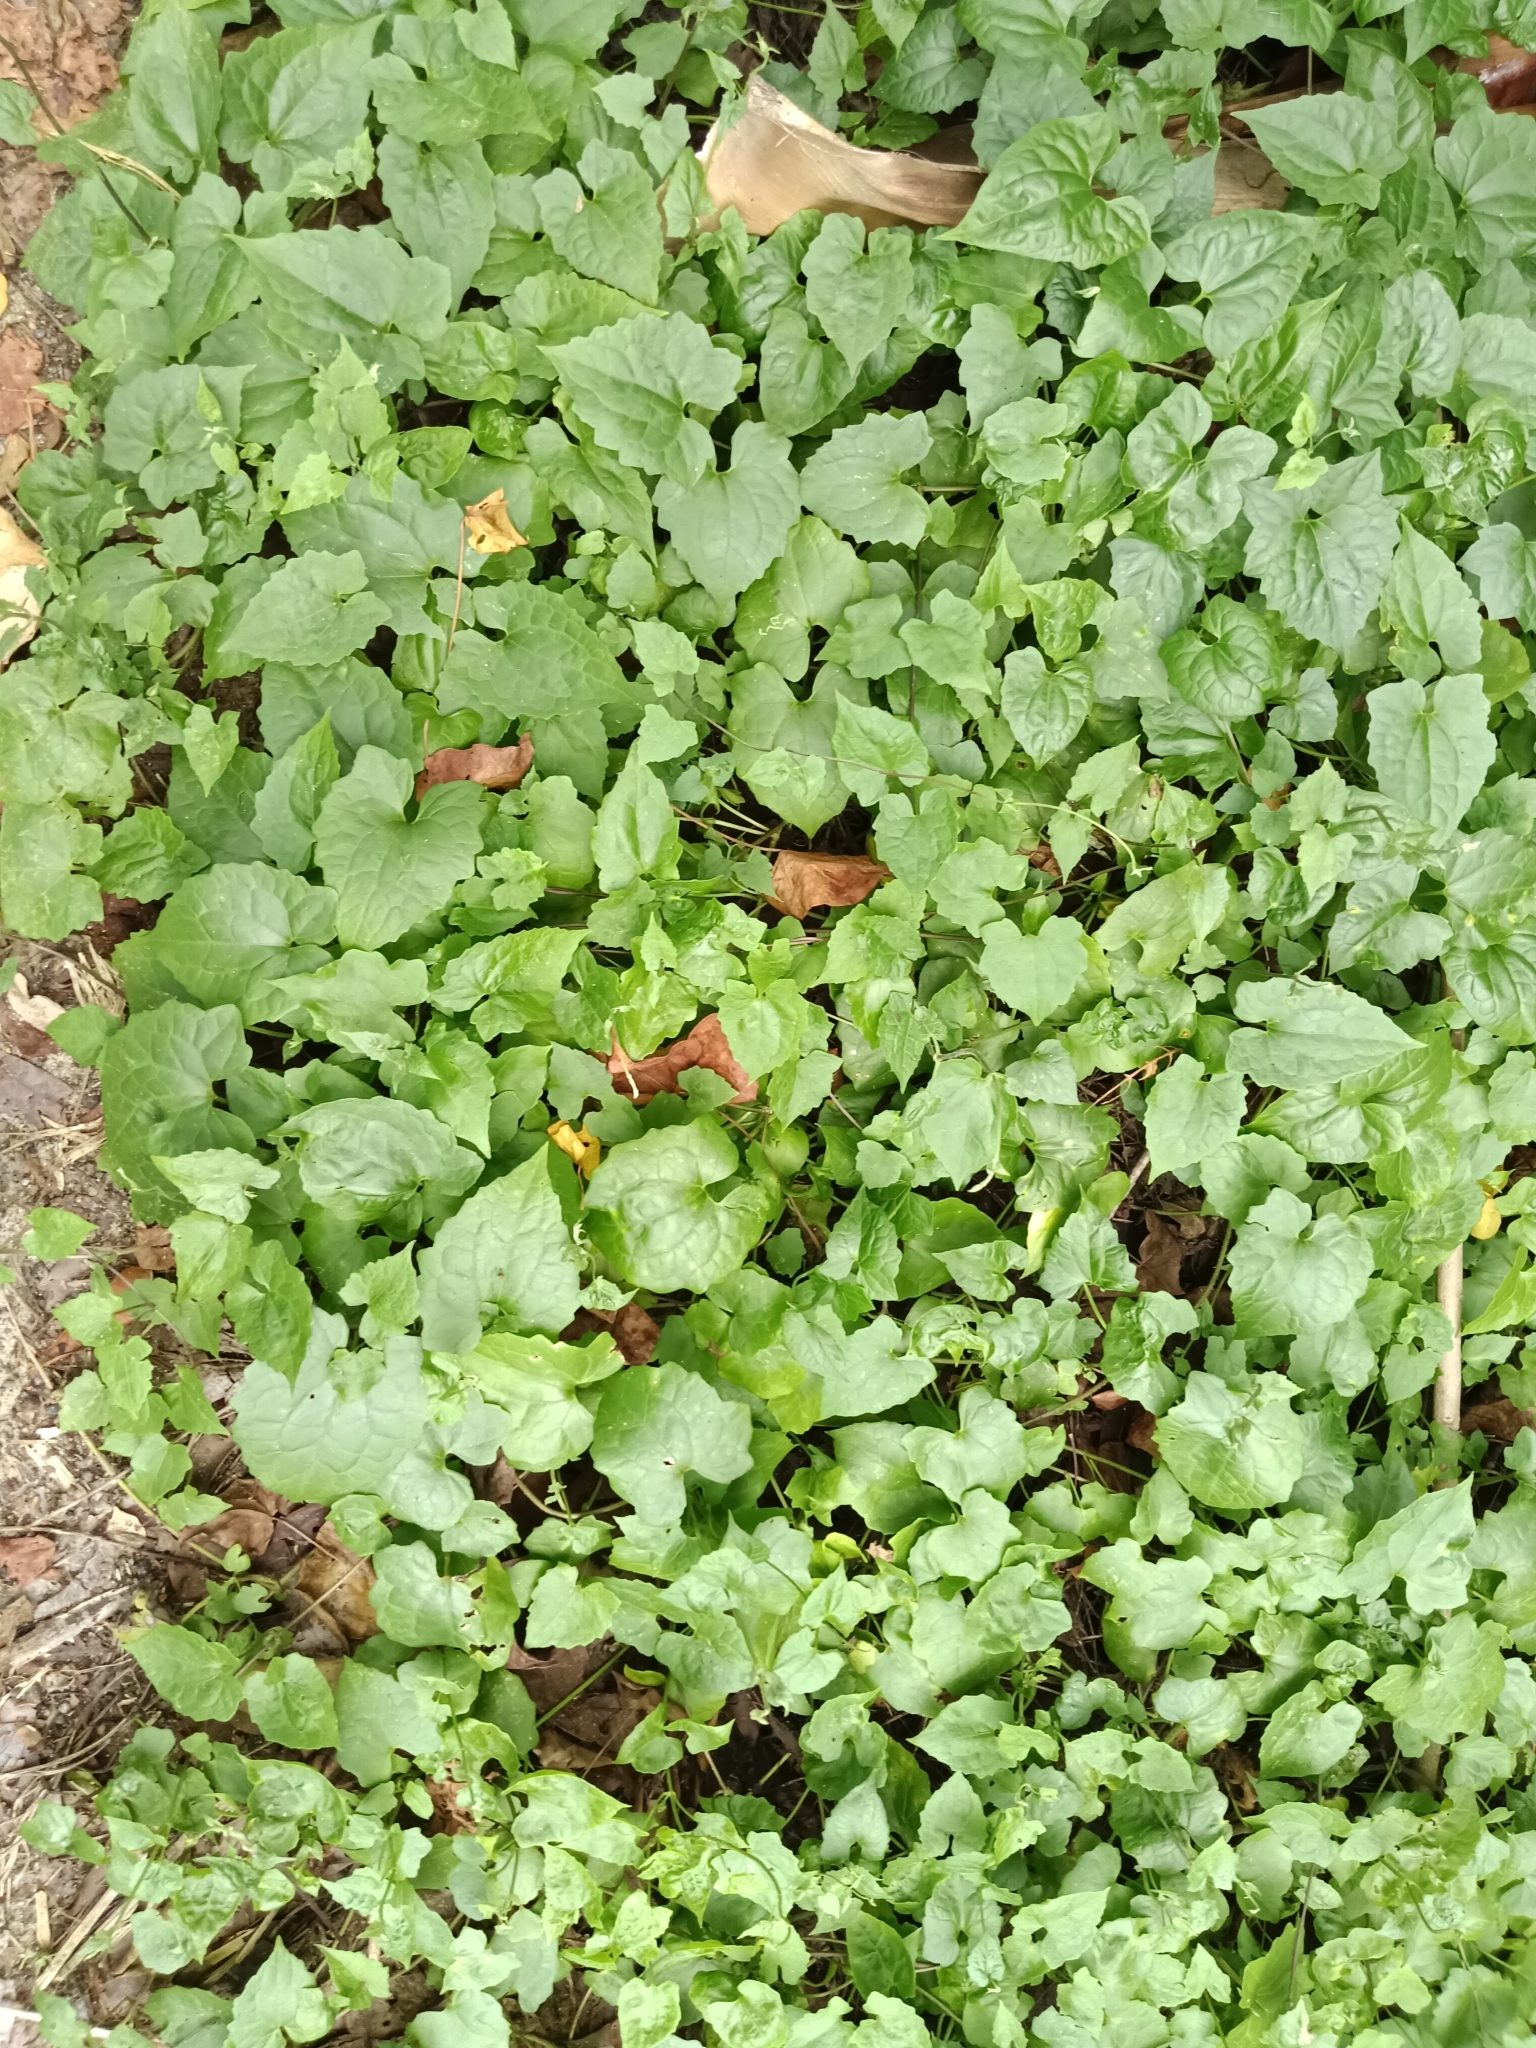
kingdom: Plantae
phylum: Tracheophyta
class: Magnoliopsida
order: Asterales
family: Asteraceae
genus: Mikania
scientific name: Mikania micrantha
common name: Mile-a-minute
